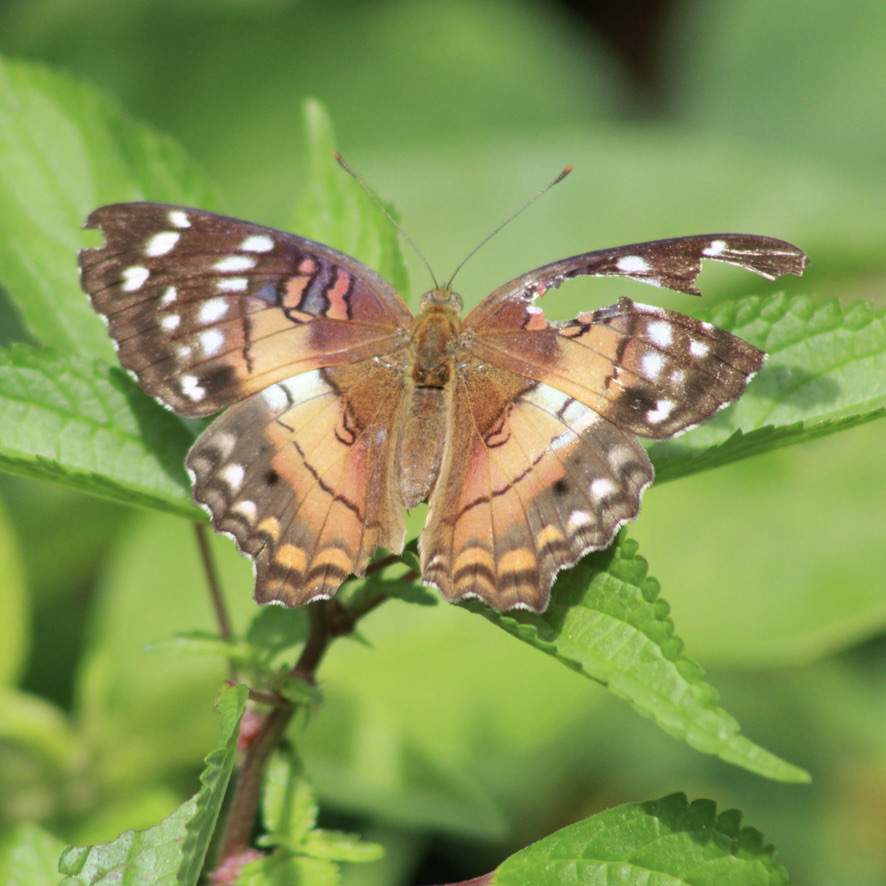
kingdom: Animalia
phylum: Arthropoda
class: Insecta
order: Lepidoptera
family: Nymphalidae
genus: Anartia
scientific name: Anartia amathea
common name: Red peacock
